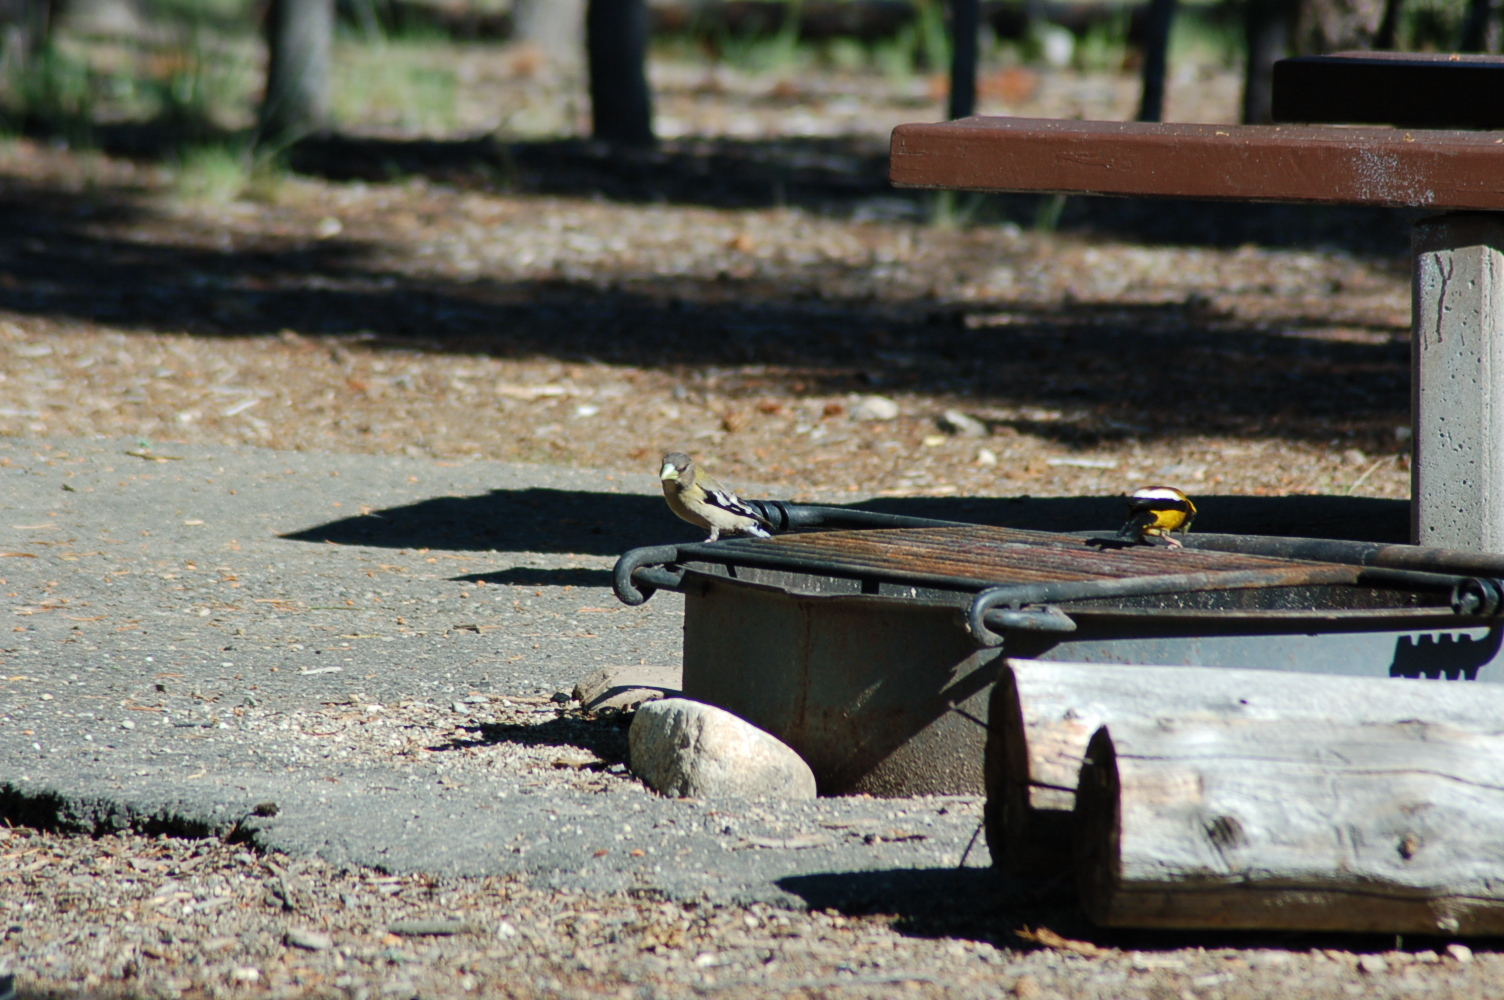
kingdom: Animalia
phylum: Chordata
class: Aves
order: Passeriformes
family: Fringillidae
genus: Hesperiphona
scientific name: Hesperiphona vespertina
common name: Evening grosbeak
